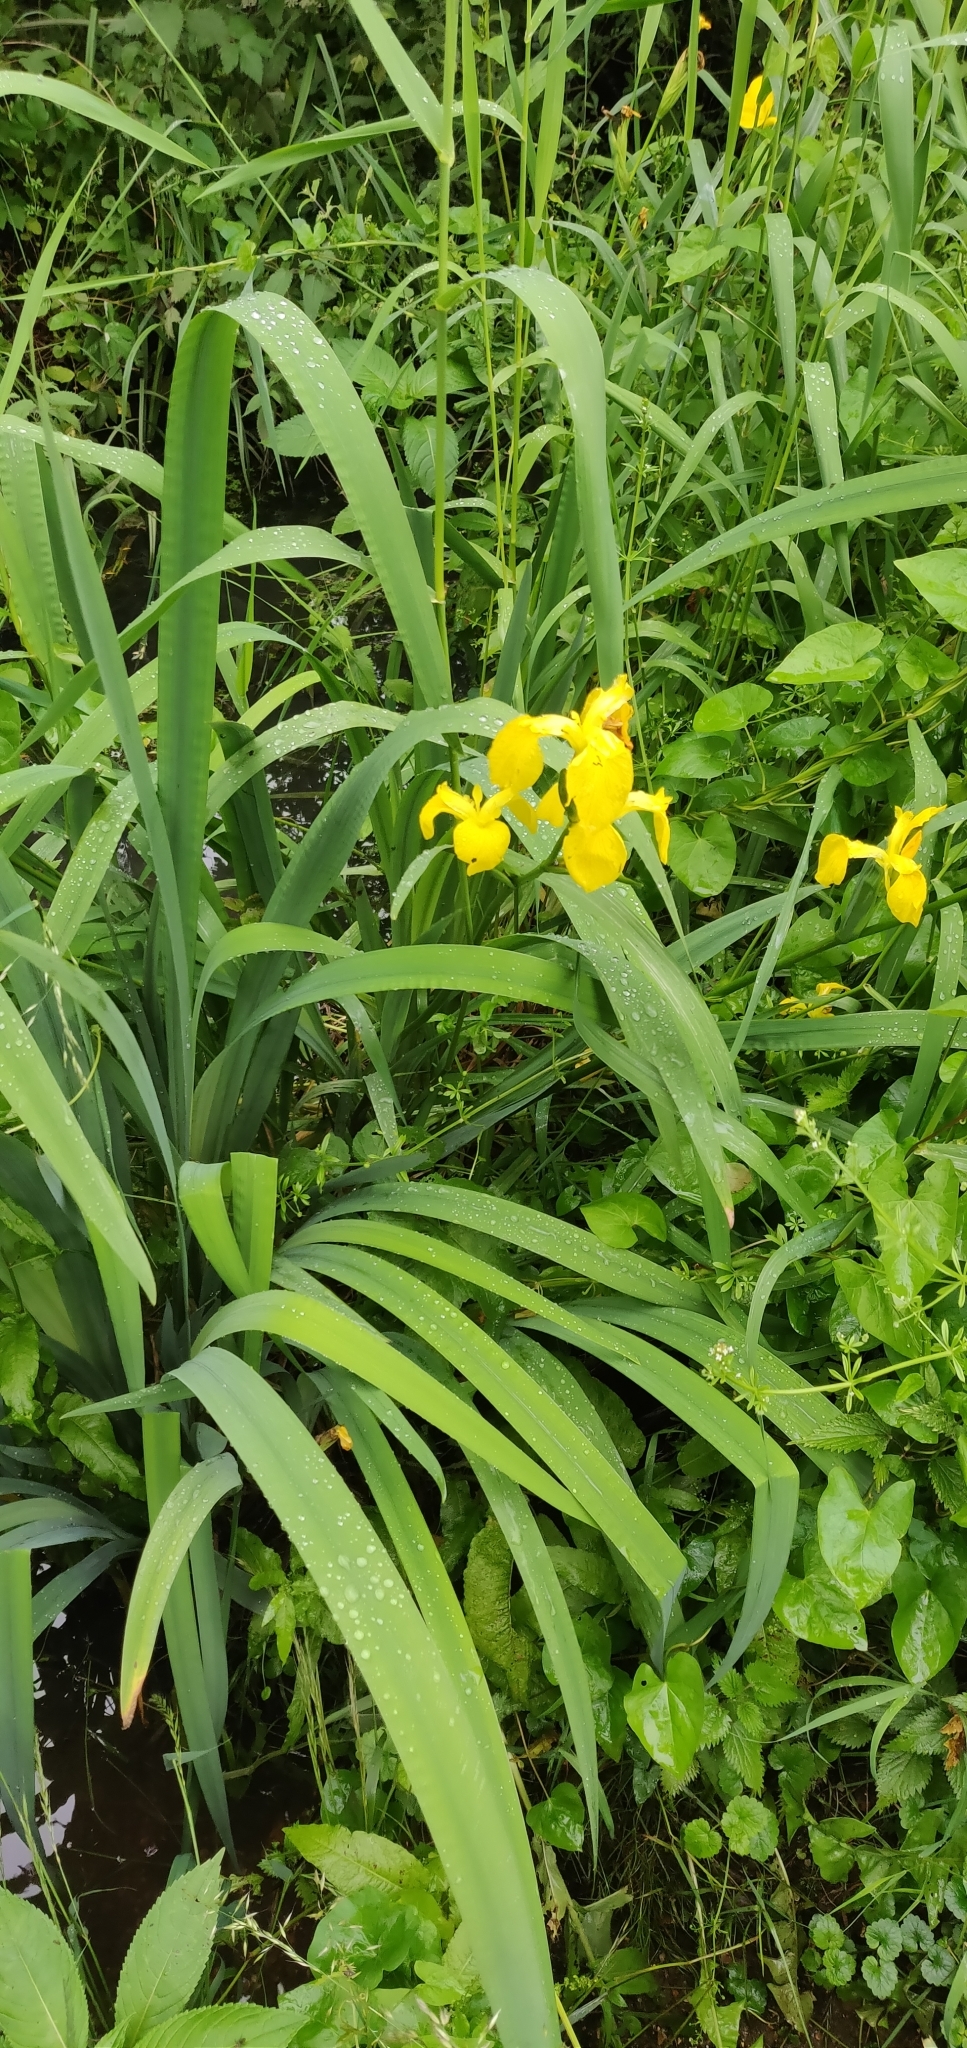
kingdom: Plantae
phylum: Tracheophyta
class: Liliopsida
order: Asparagales
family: Iridaceae
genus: Iris
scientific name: Iris pseudacorus
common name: Yellow flag
